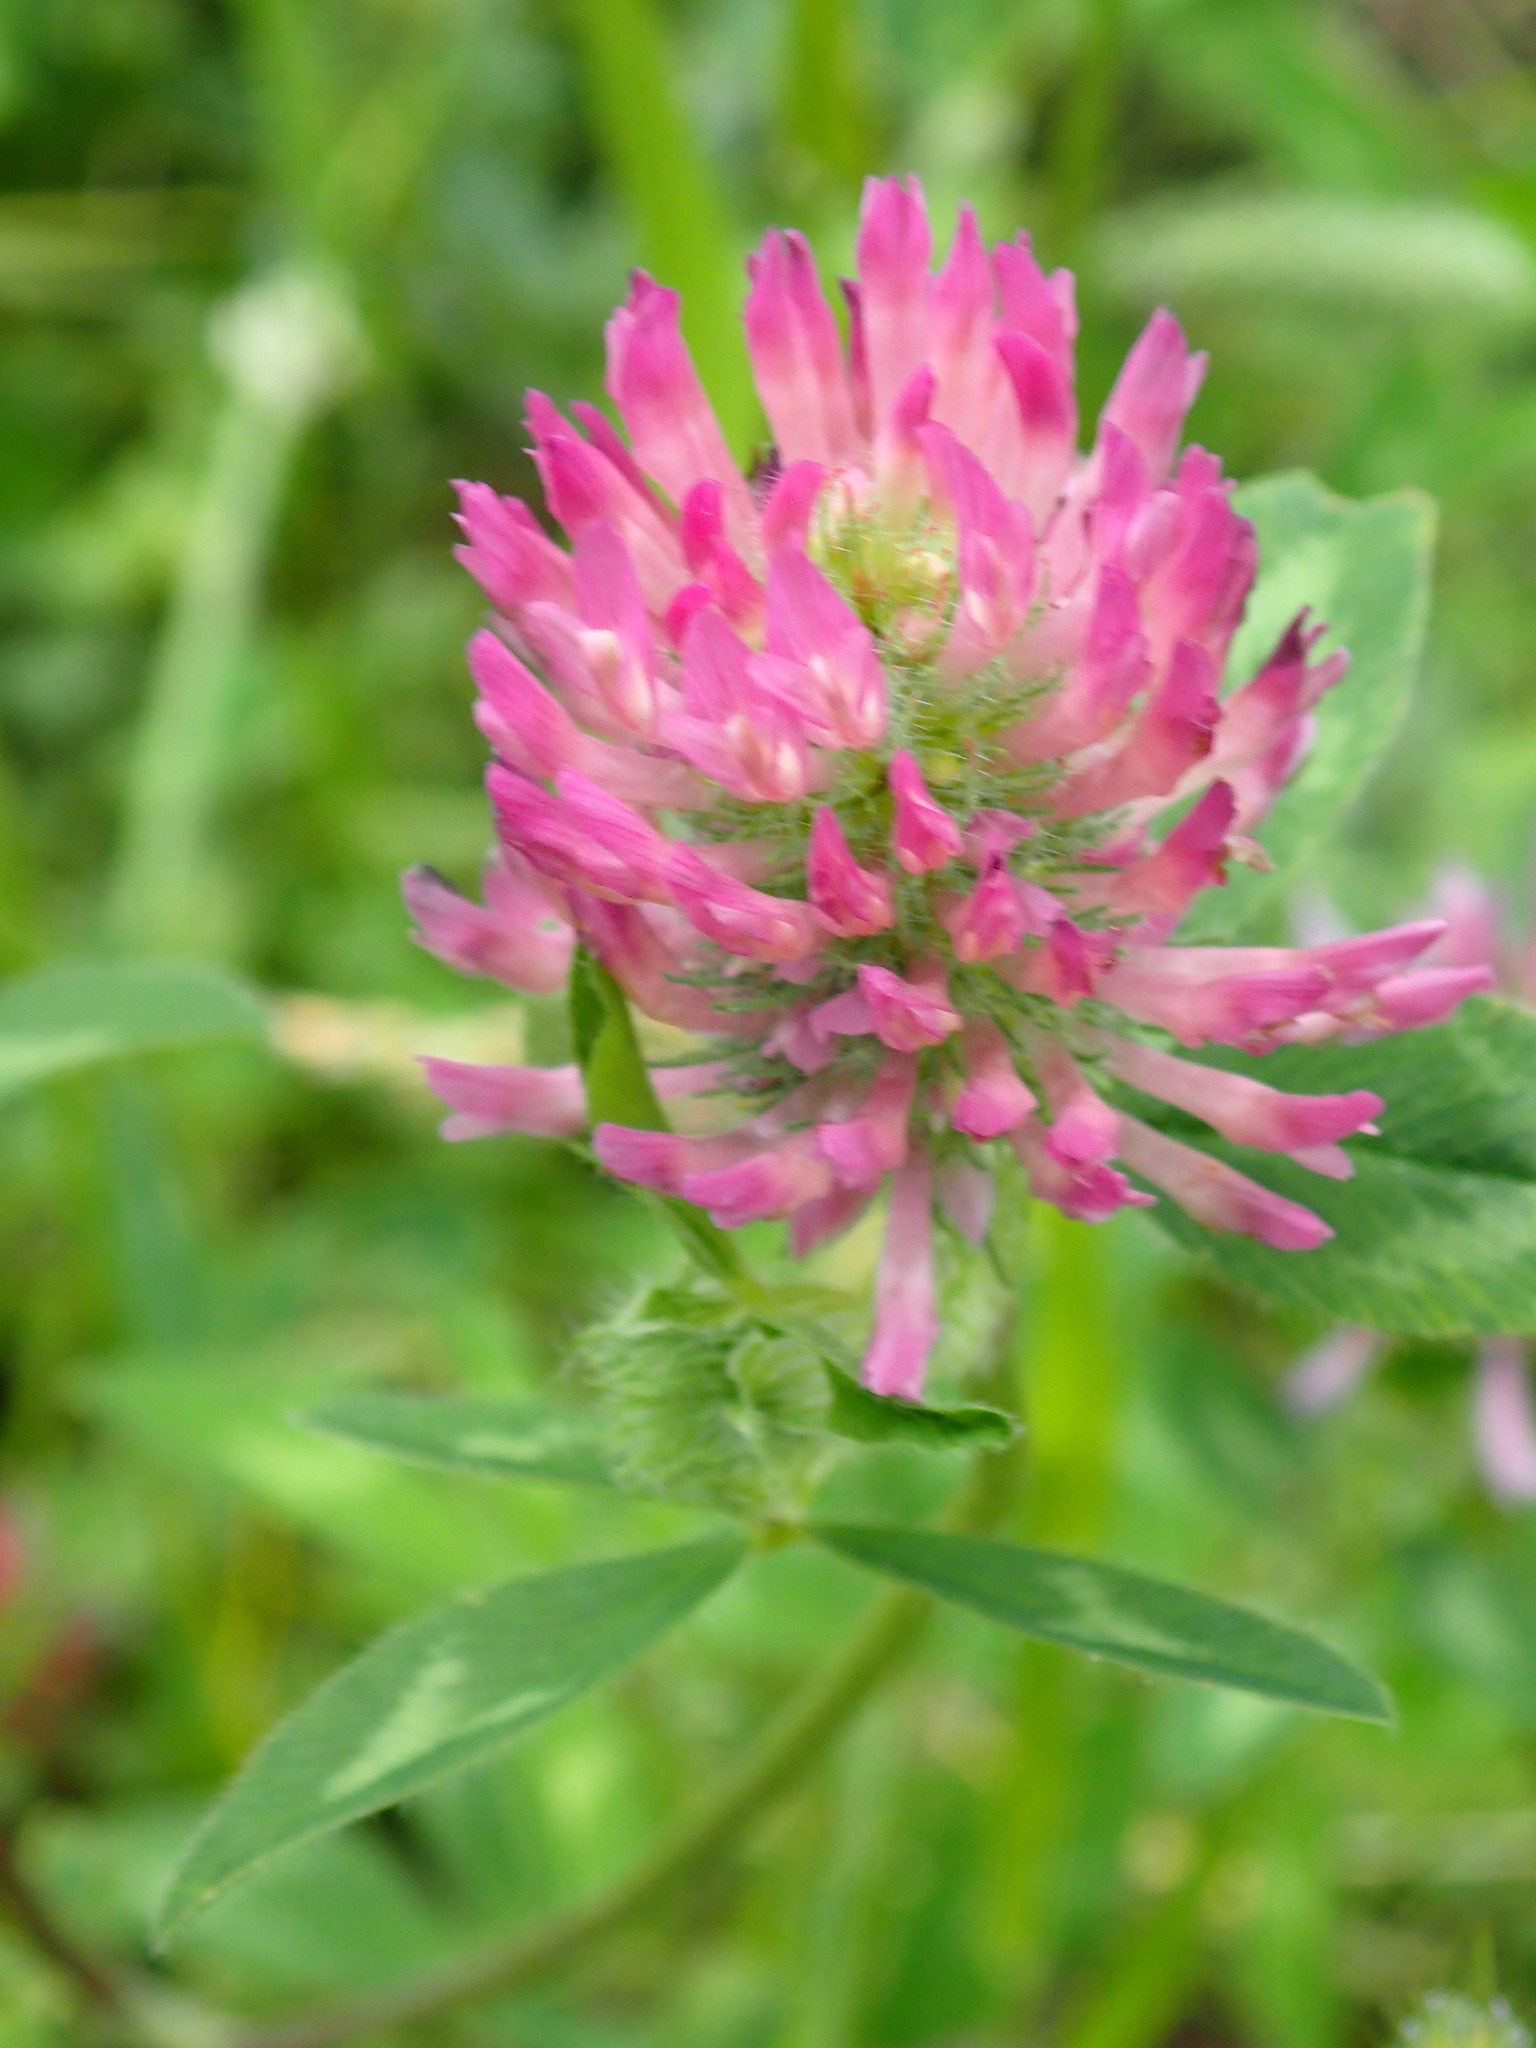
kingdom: Plantae
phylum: Tracheophyta
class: Magnoliopsida
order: Fabales
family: Fabaceae
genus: Trifolium
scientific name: Trifolium pratense
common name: Red clover
